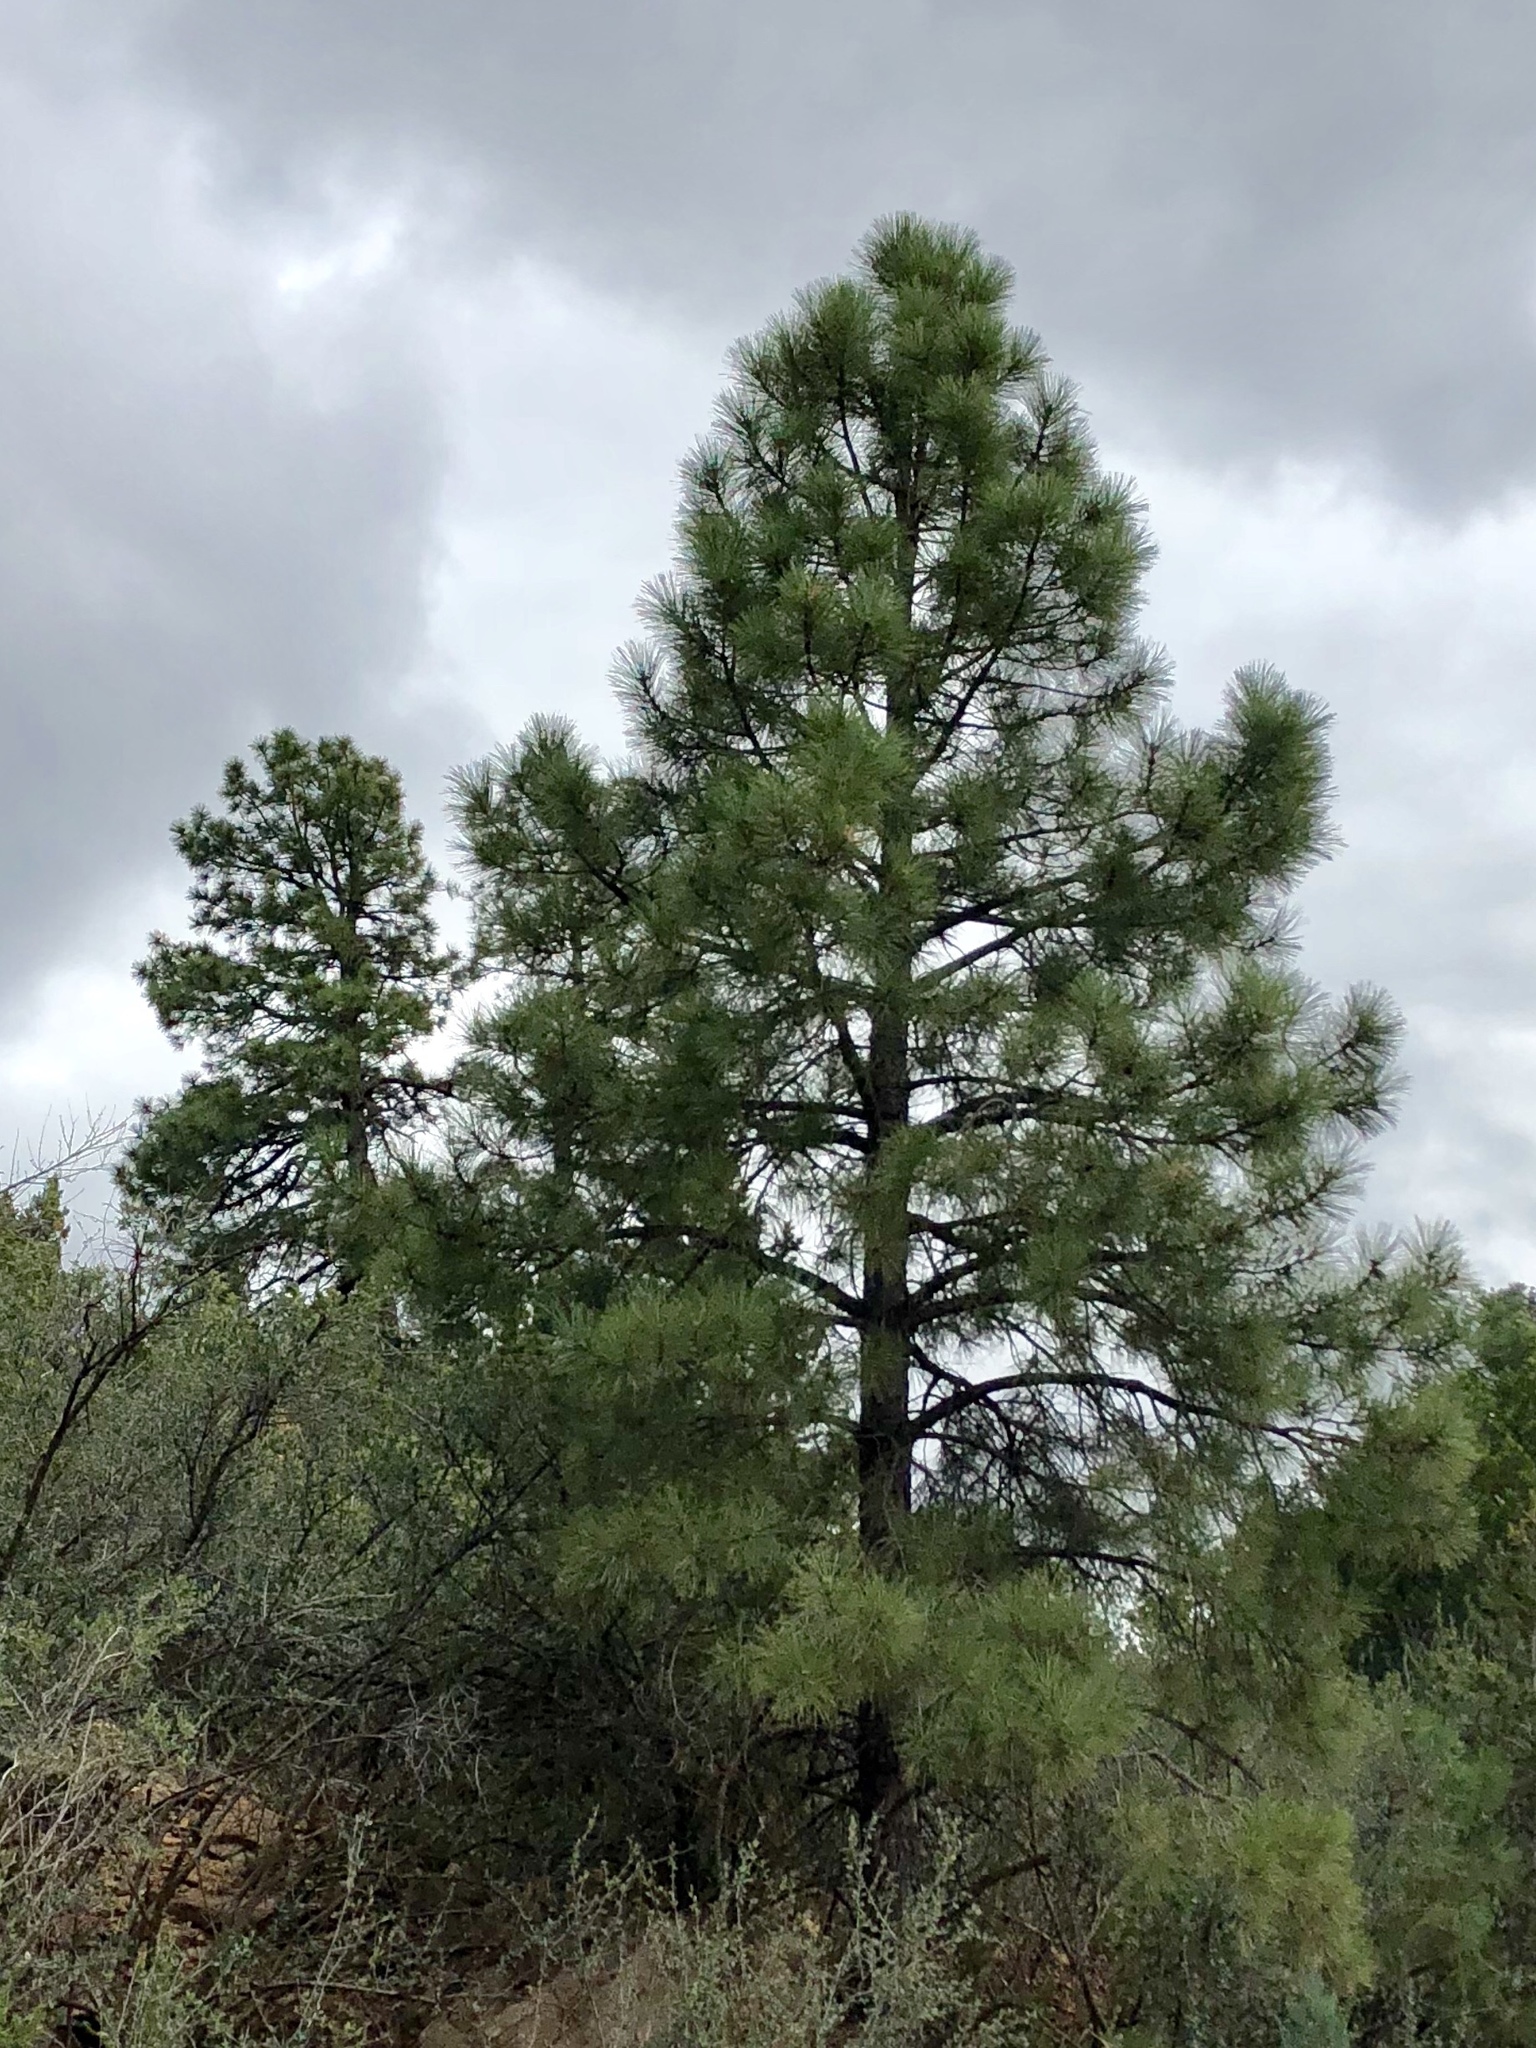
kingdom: Plantae
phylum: Tracheophyta
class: Pinopsida
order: Pinales
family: Pinaceae
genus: Pinus
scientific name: Pinus ponderosa
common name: Western yellow-pine
